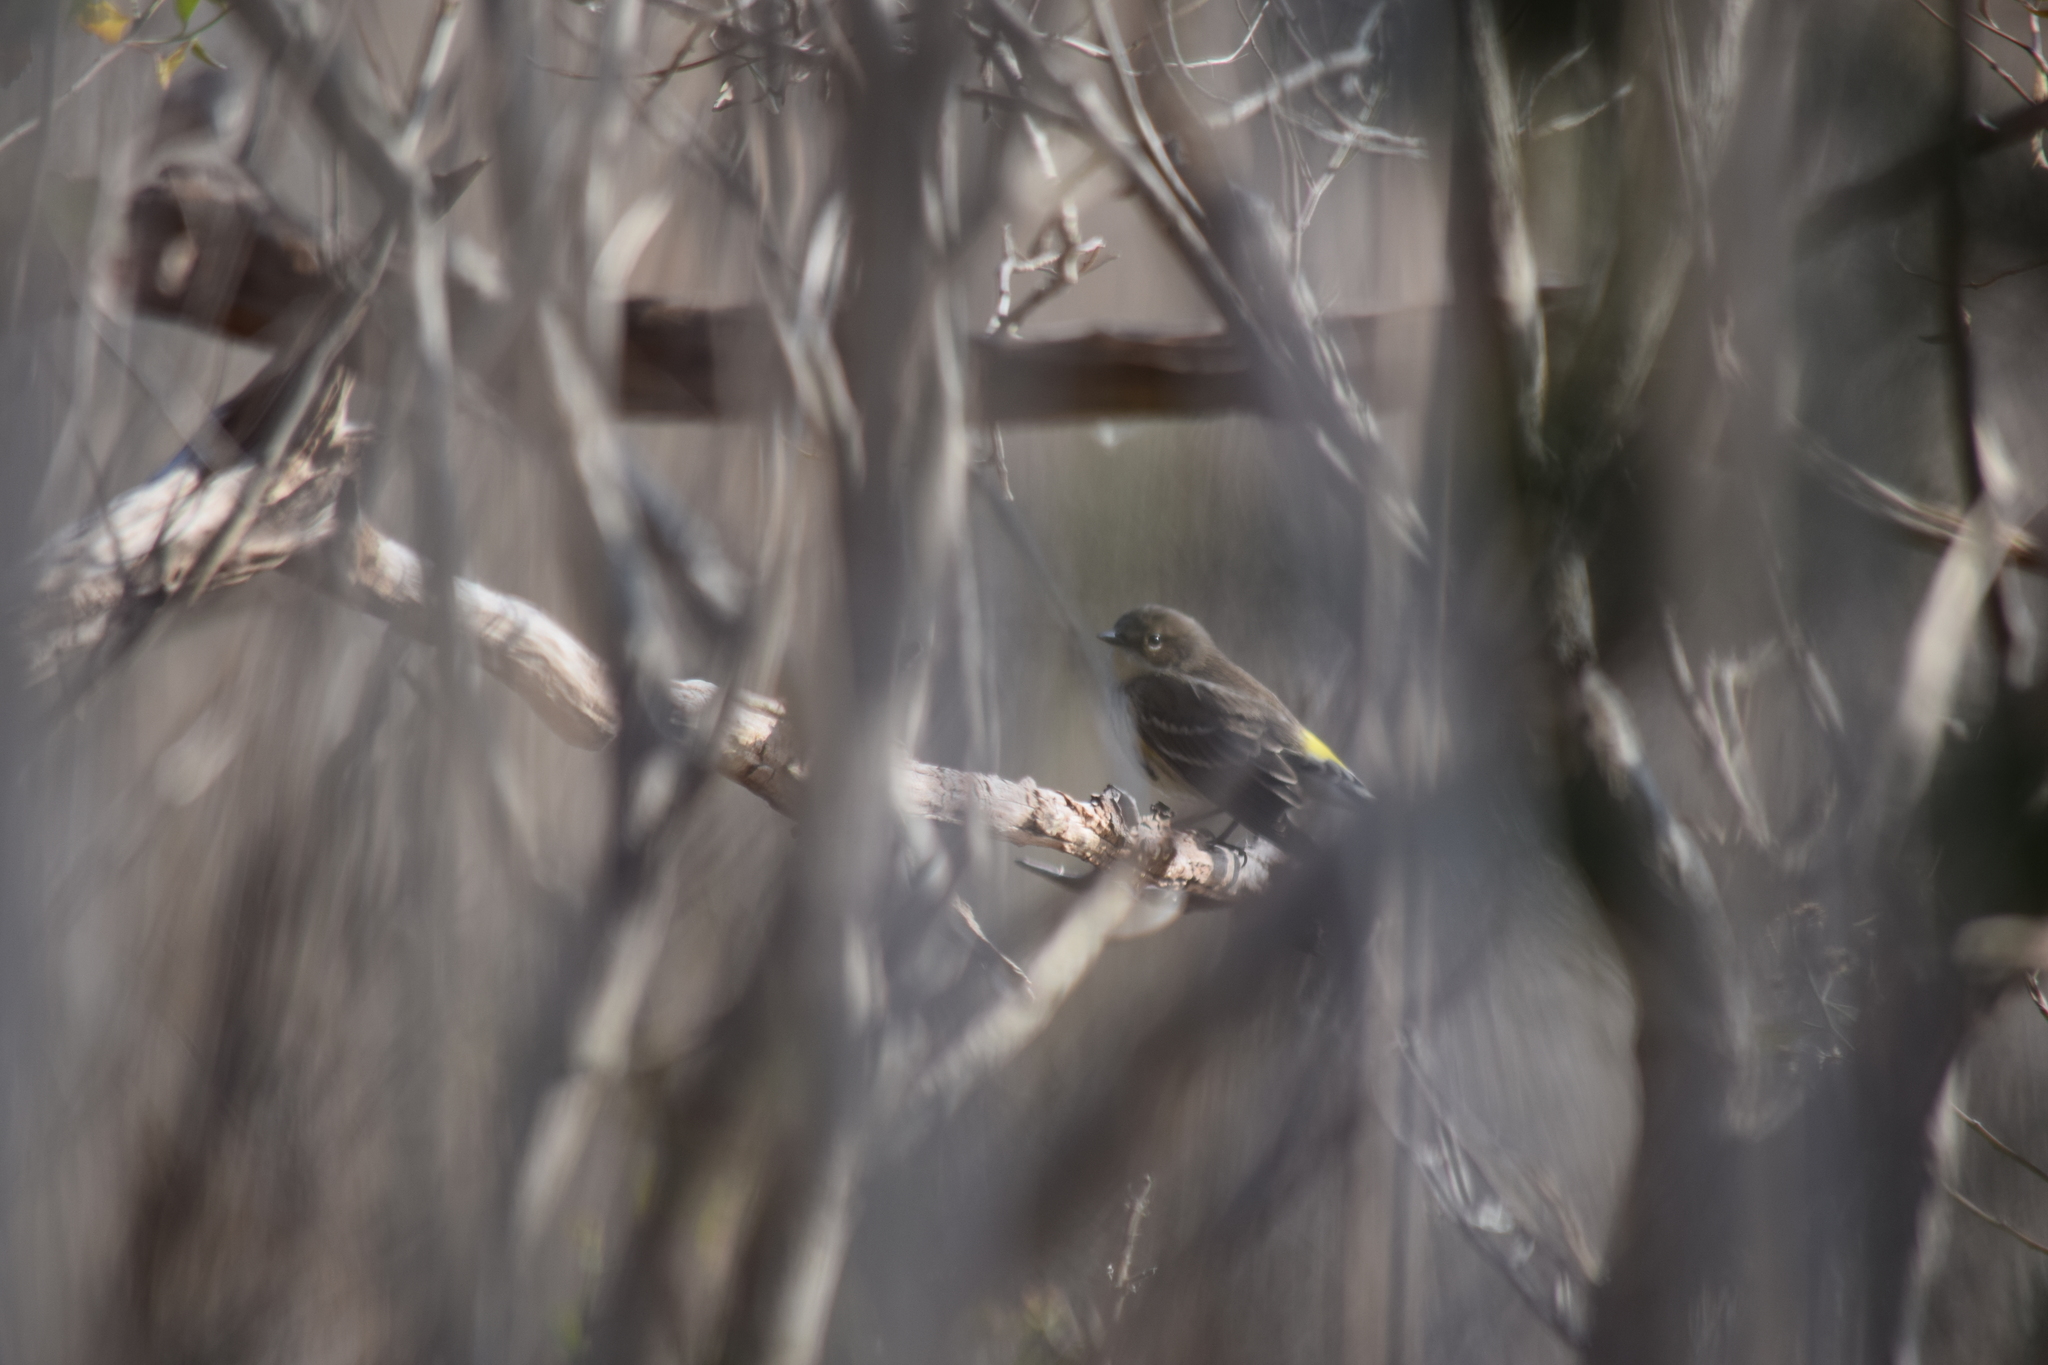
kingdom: Animalia
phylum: Chordata
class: Aves
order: Passeriformes
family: Parulidae
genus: Setophaga
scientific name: Setophaga coronata
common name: Myrtle warbler
